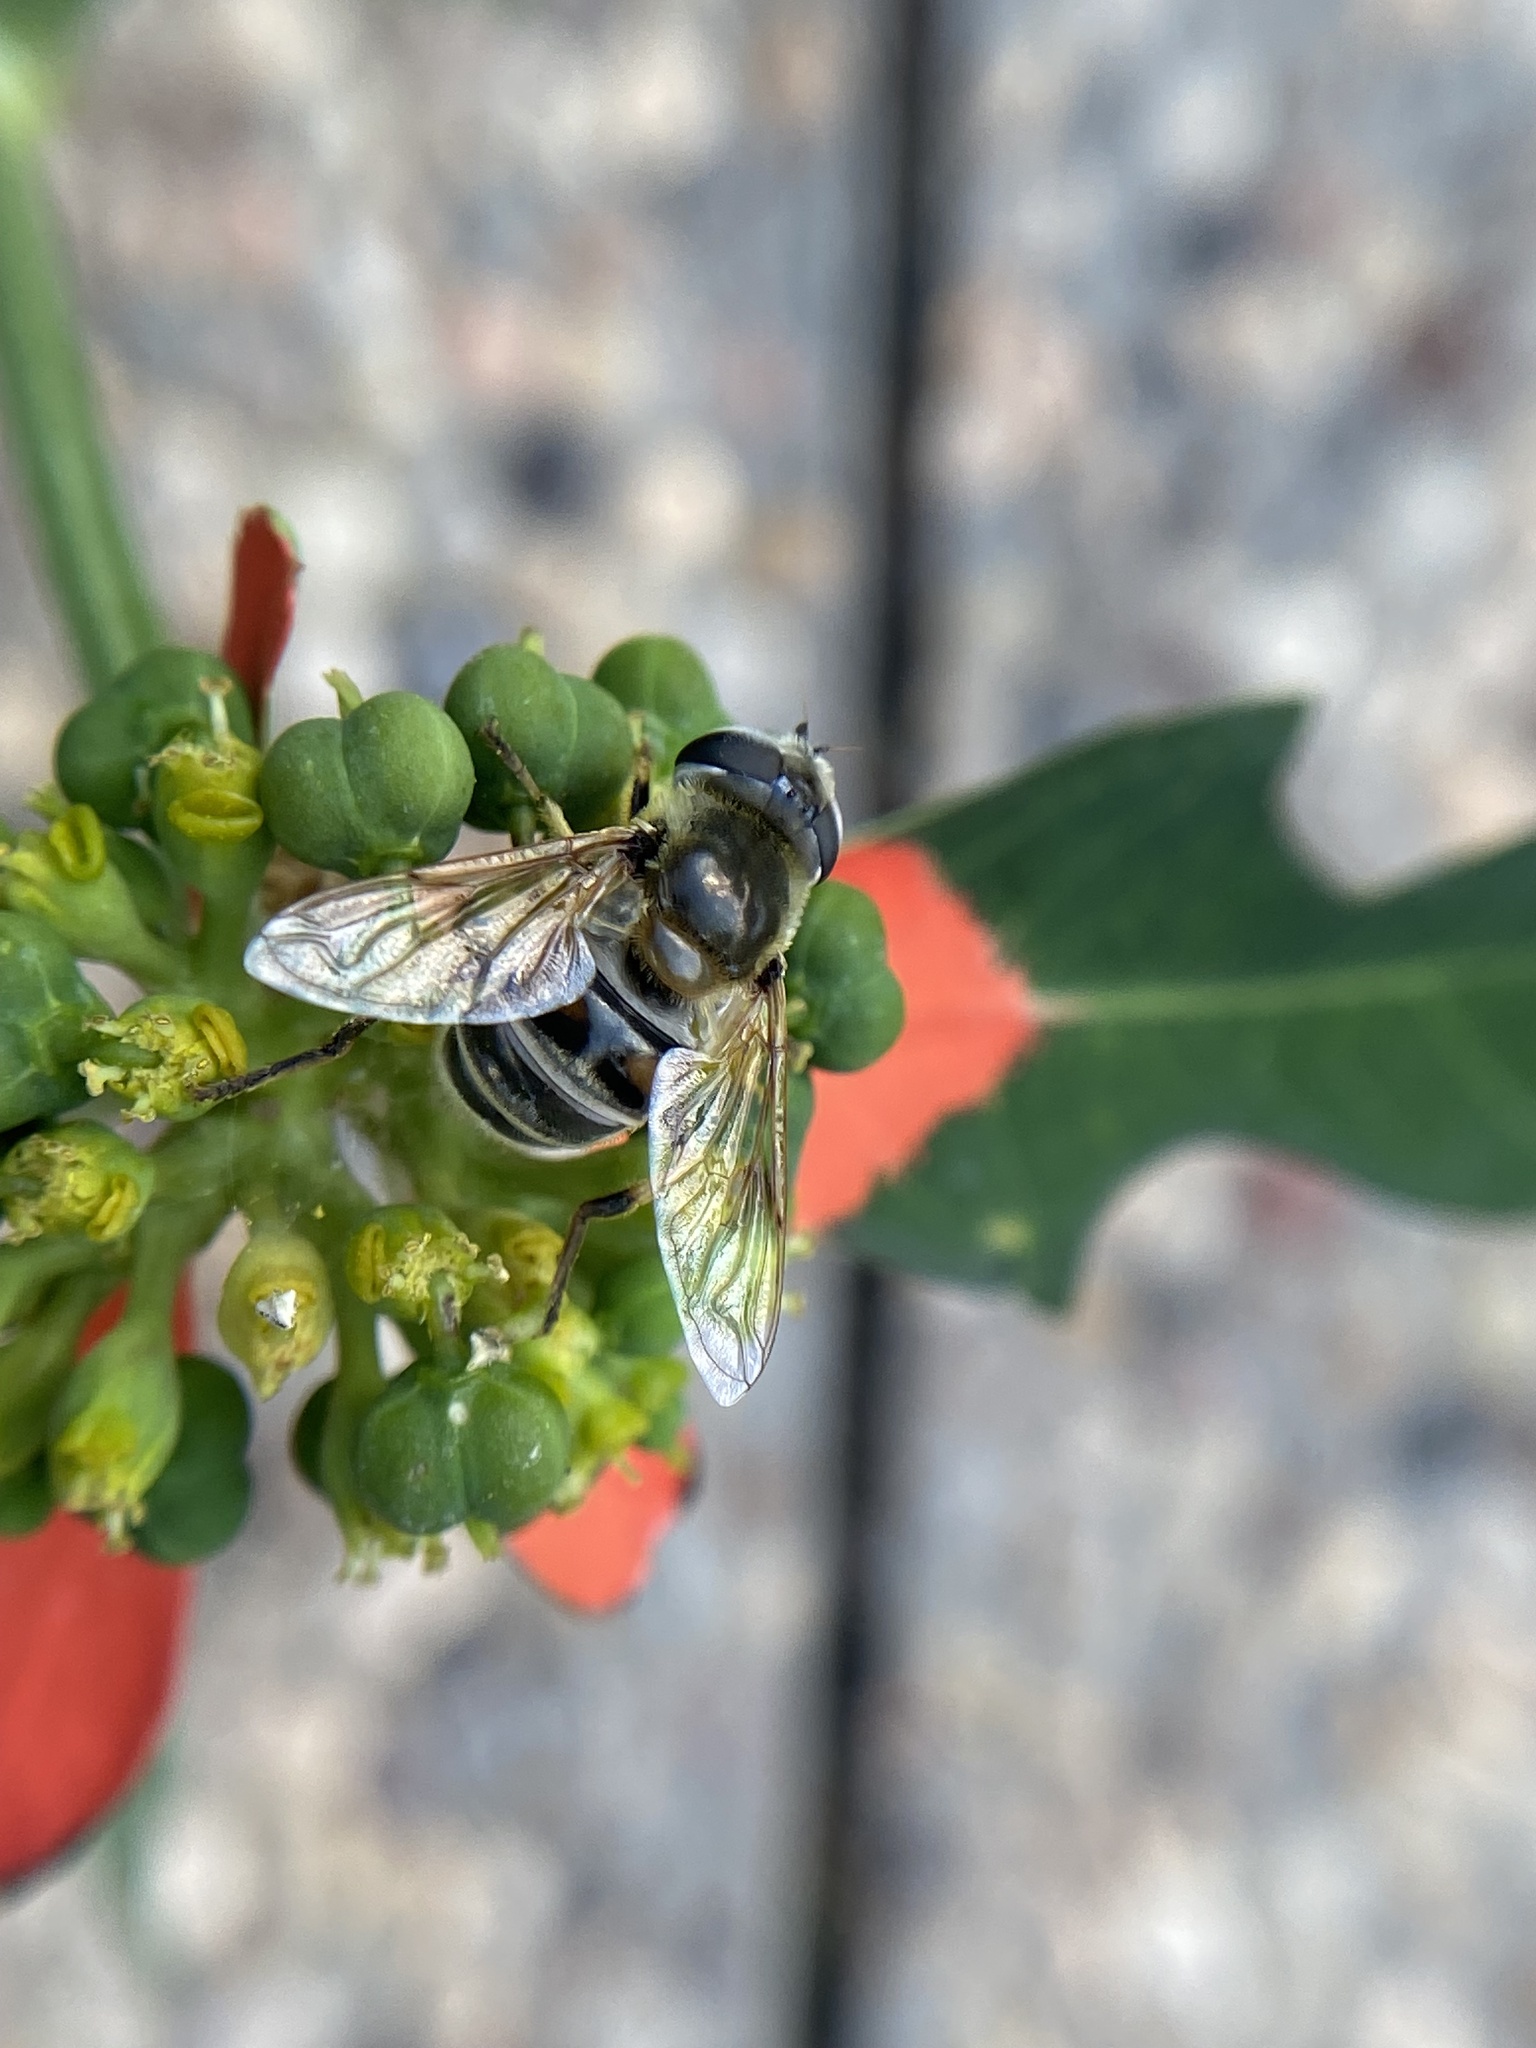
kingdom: Animalia
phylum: Arthropoda
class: Insecta
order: Diptera
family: Syrphidae
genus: Eristalis
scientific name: Eristalis stipator
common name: Yellow-shouldered drone fly
